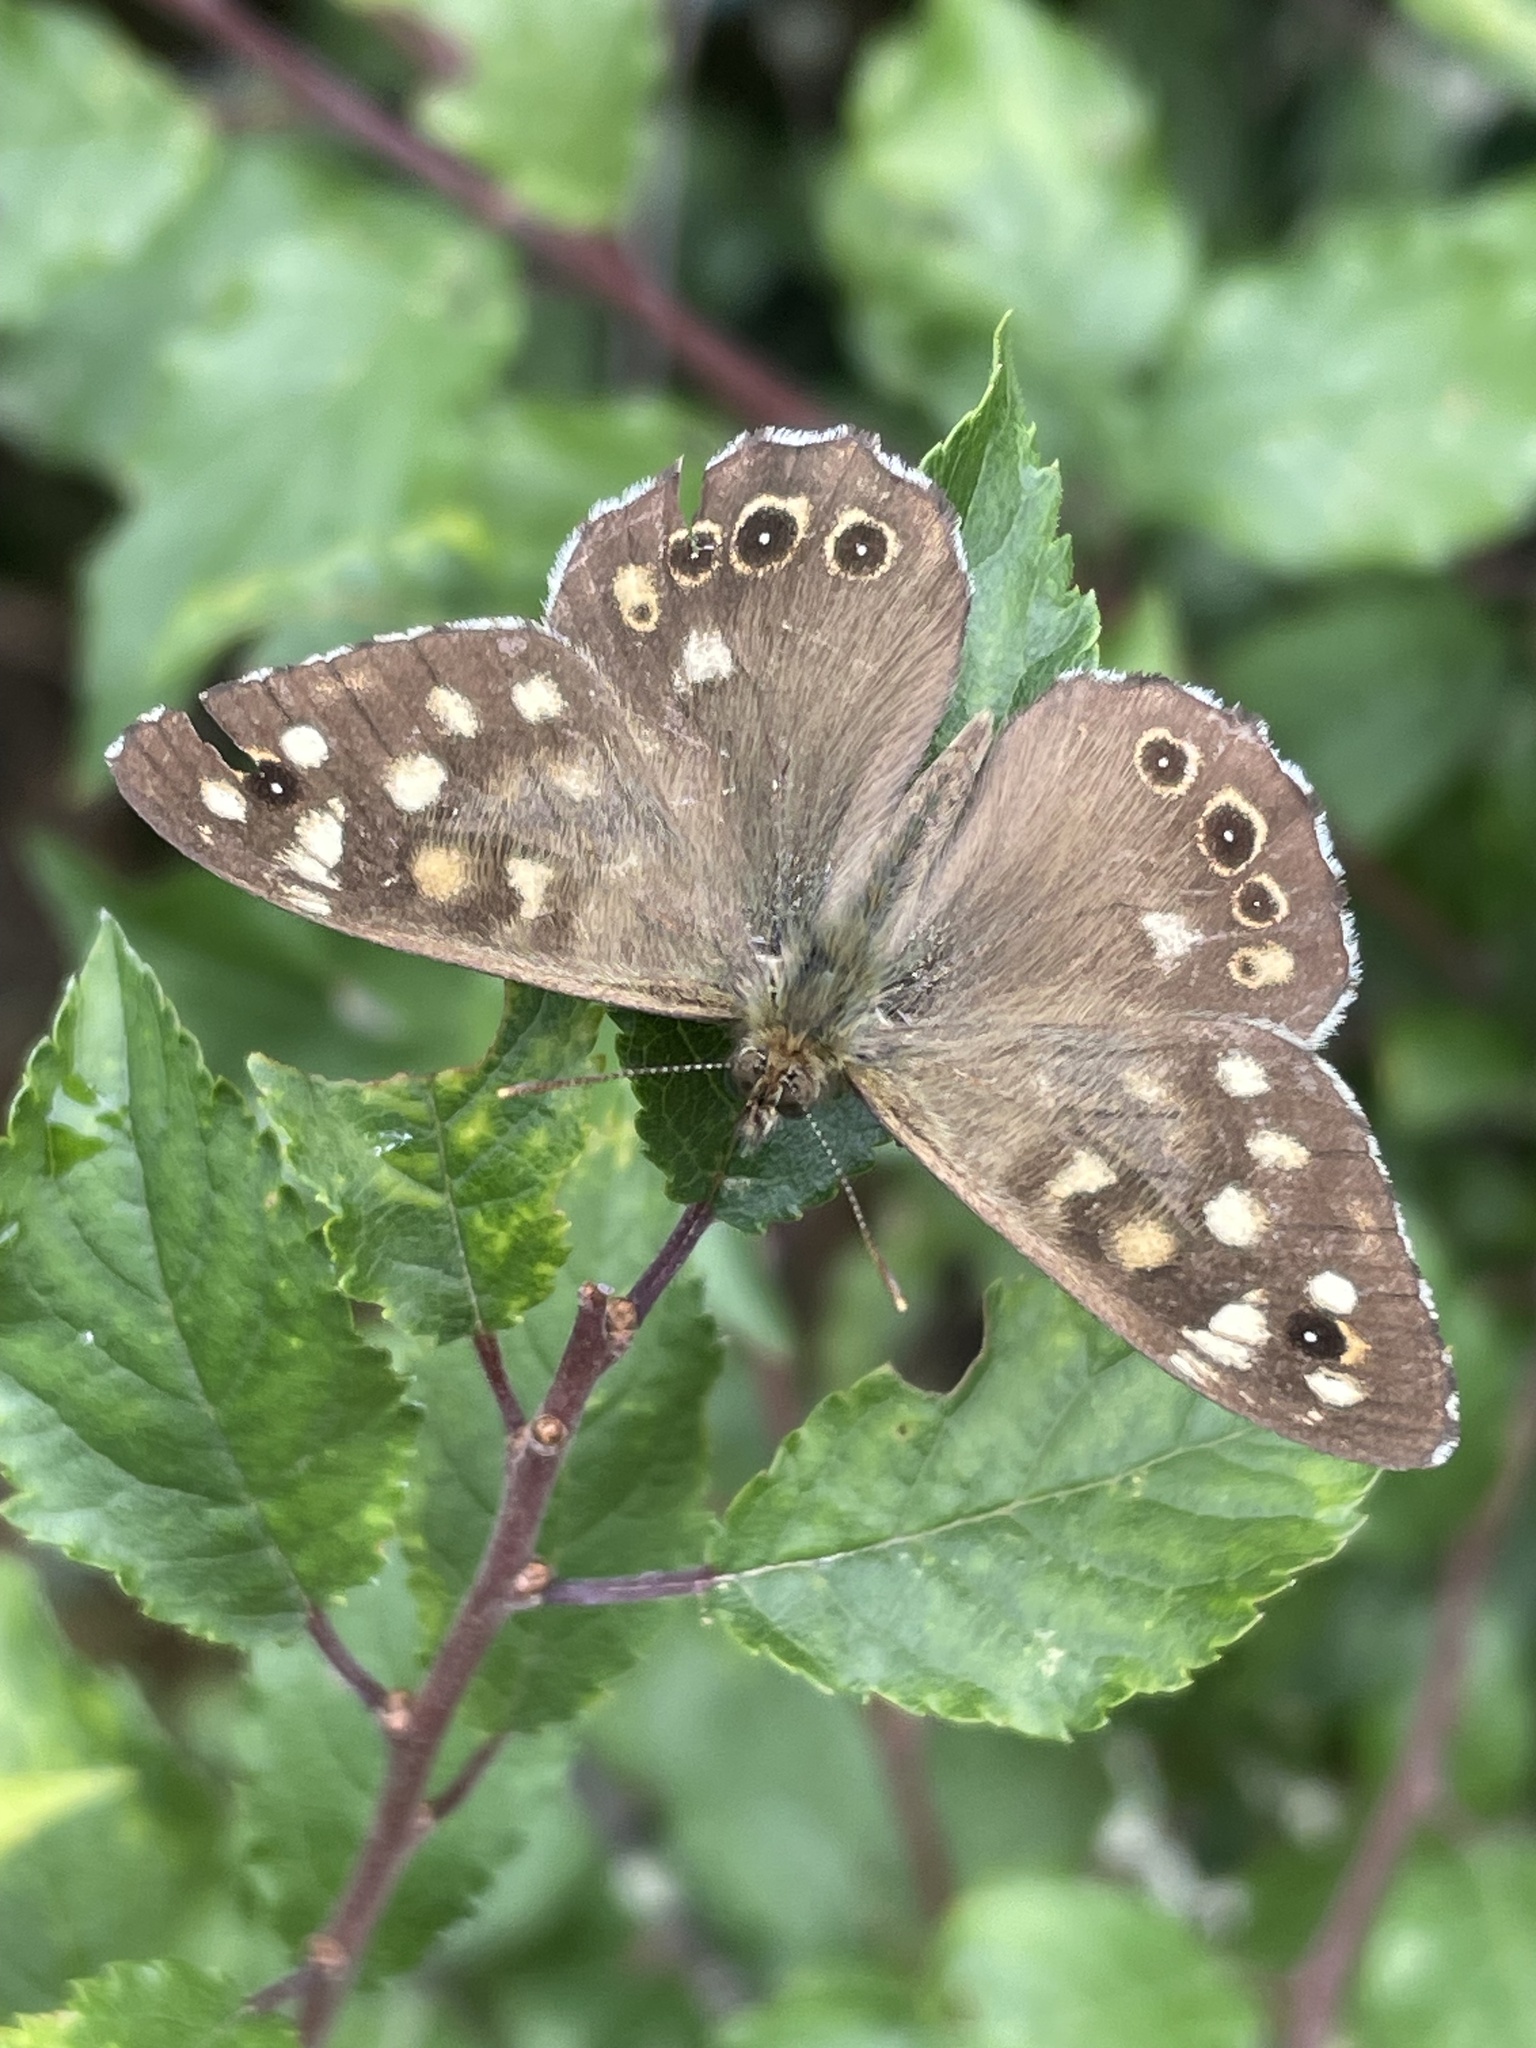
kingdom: Animalia
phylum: Arthropoda
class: Insecta
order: Lepidoptera
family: Nymphalidae
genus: Pararge
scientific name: Pararge aegeria
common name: Speckled wood
